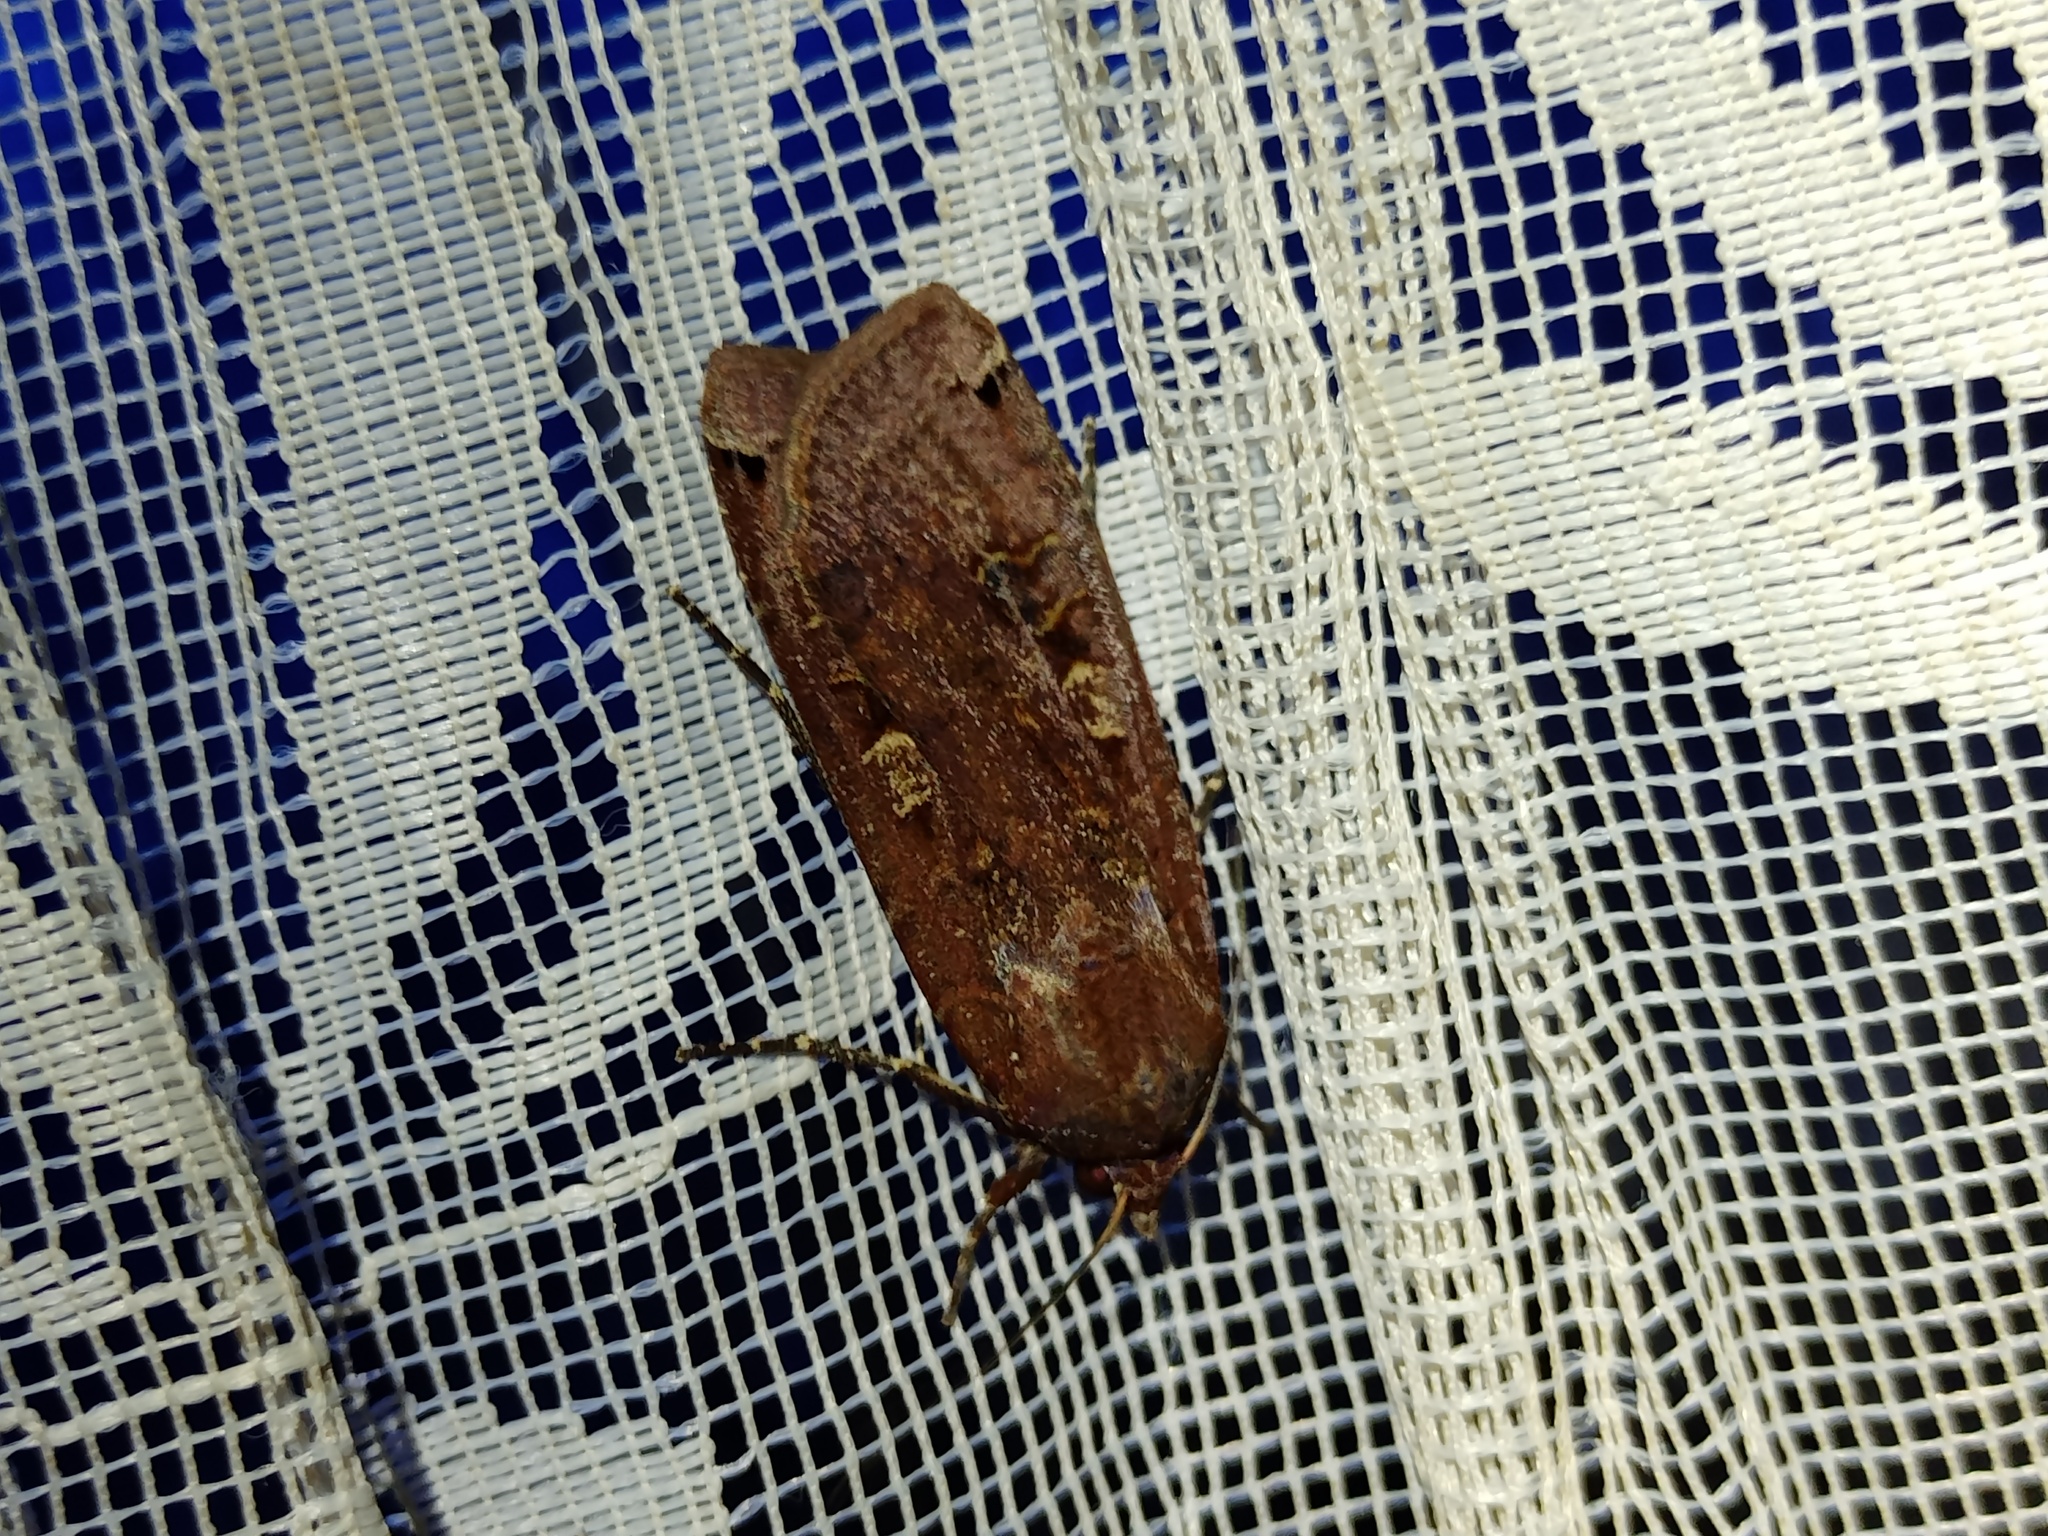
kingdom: Animalia
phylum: Arthropoda
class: Insecta
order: Lepidoptera
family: Noctuidae
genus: Noctua
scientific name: Noctua pronuba
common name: Large yellow underwing
